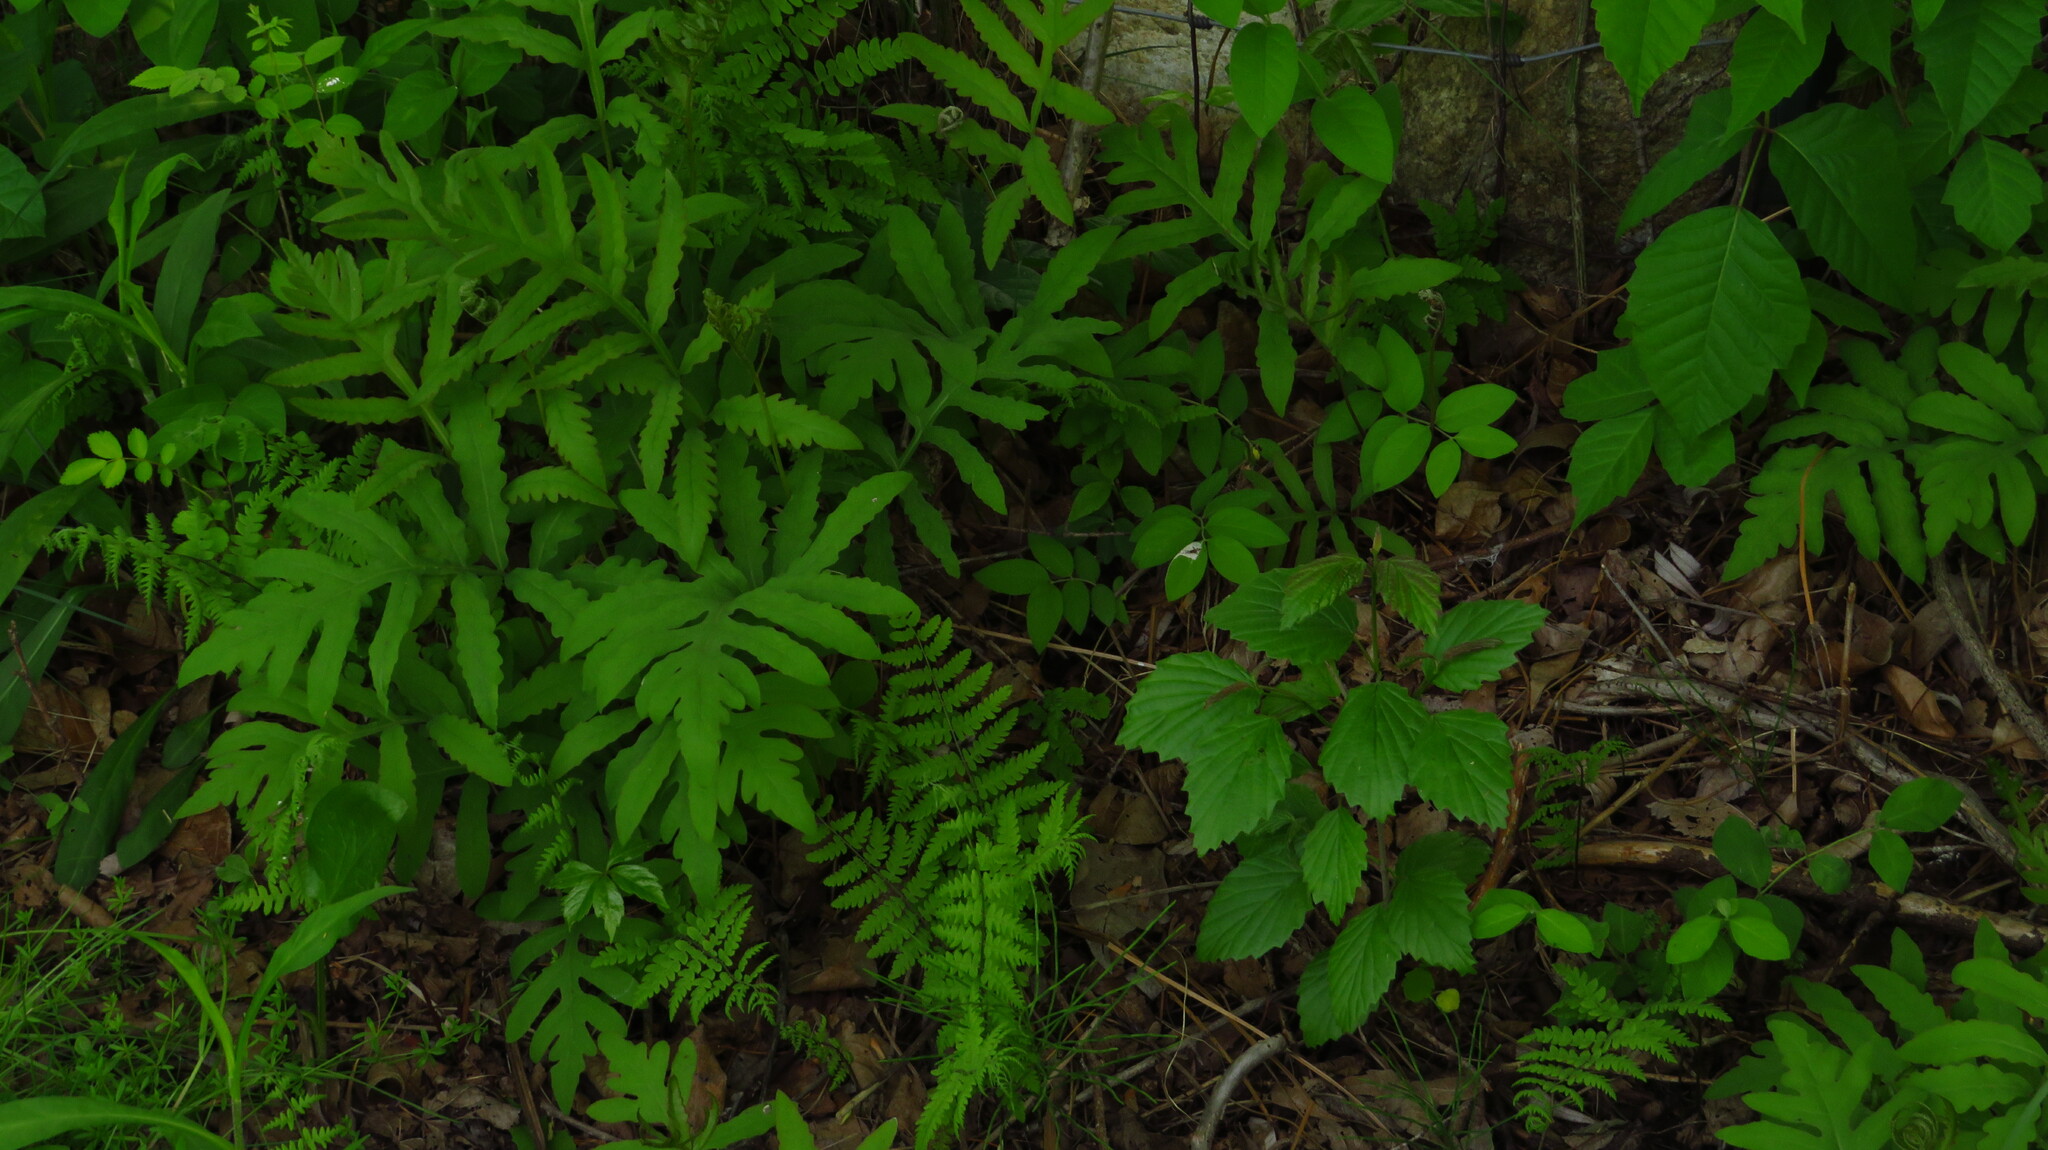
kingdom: Plantae
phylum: Tracheophyta
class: Polypodiopsida
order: Polypodiales
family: Onocleaceae
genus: Onoclea
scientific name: Onoclea sensibilis
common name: Sensitive fern
